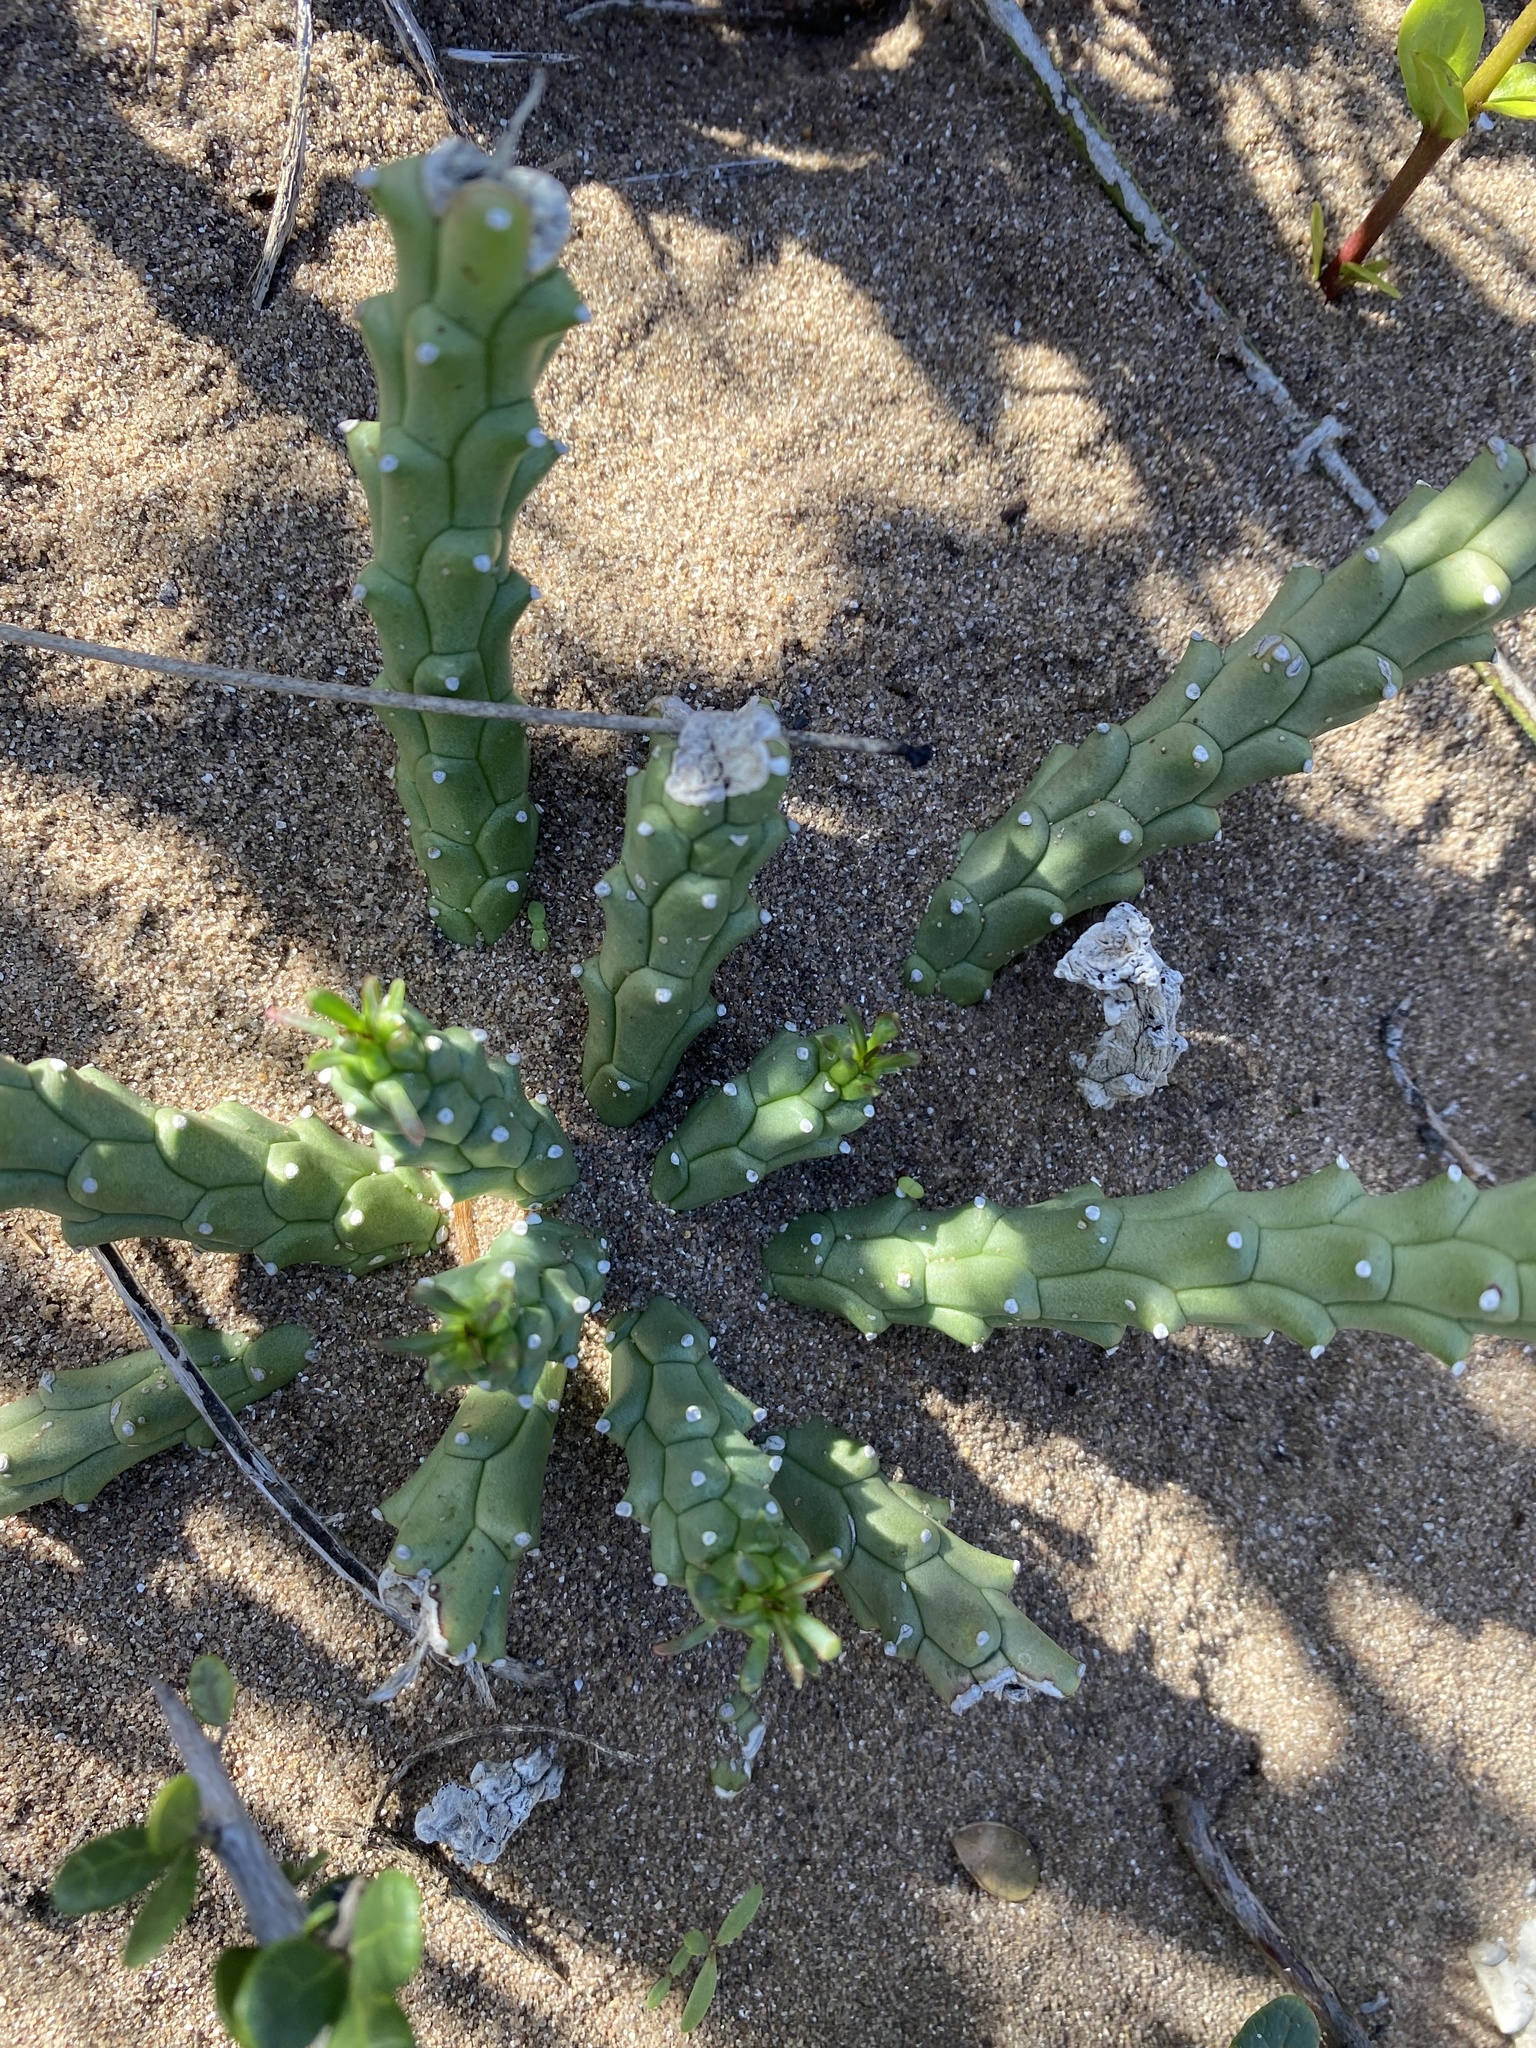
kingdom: Plantae
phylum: Tracheophyta
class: Magnoliopsida
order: Malpighiales
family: Euphorbiaceae
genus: Euphorbia
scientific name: Euphorbia caput-medusae
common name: Medusa's-head
